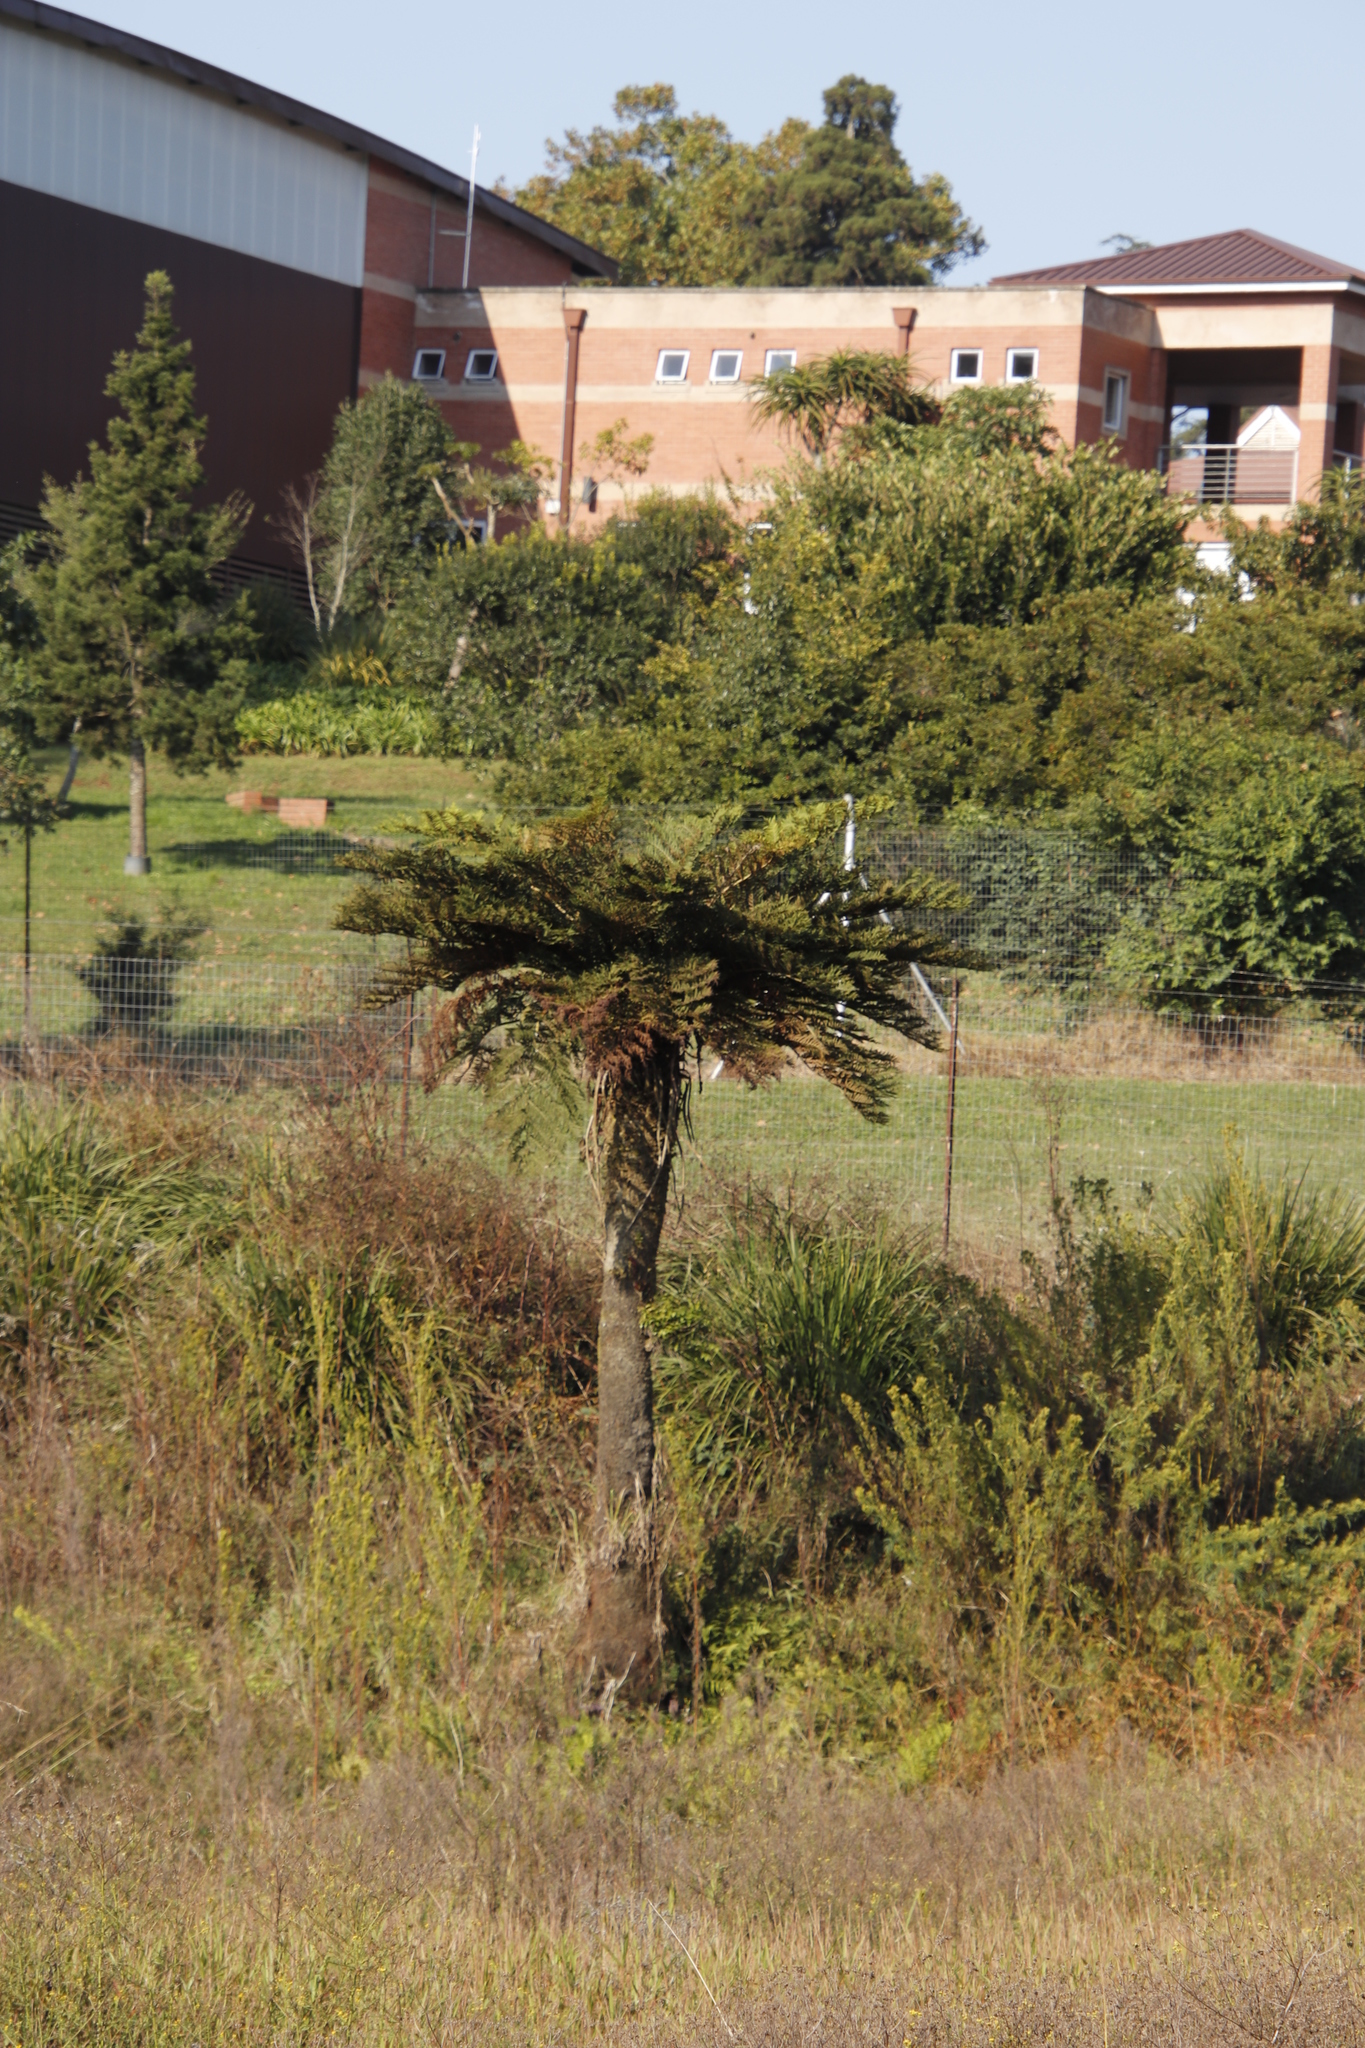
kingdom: Plantae
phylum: Tracheophyta
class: Polypodiopsida
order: Cyatheales
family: Cyatheaceae
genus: Alsophila
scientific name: Alsophila dregei
